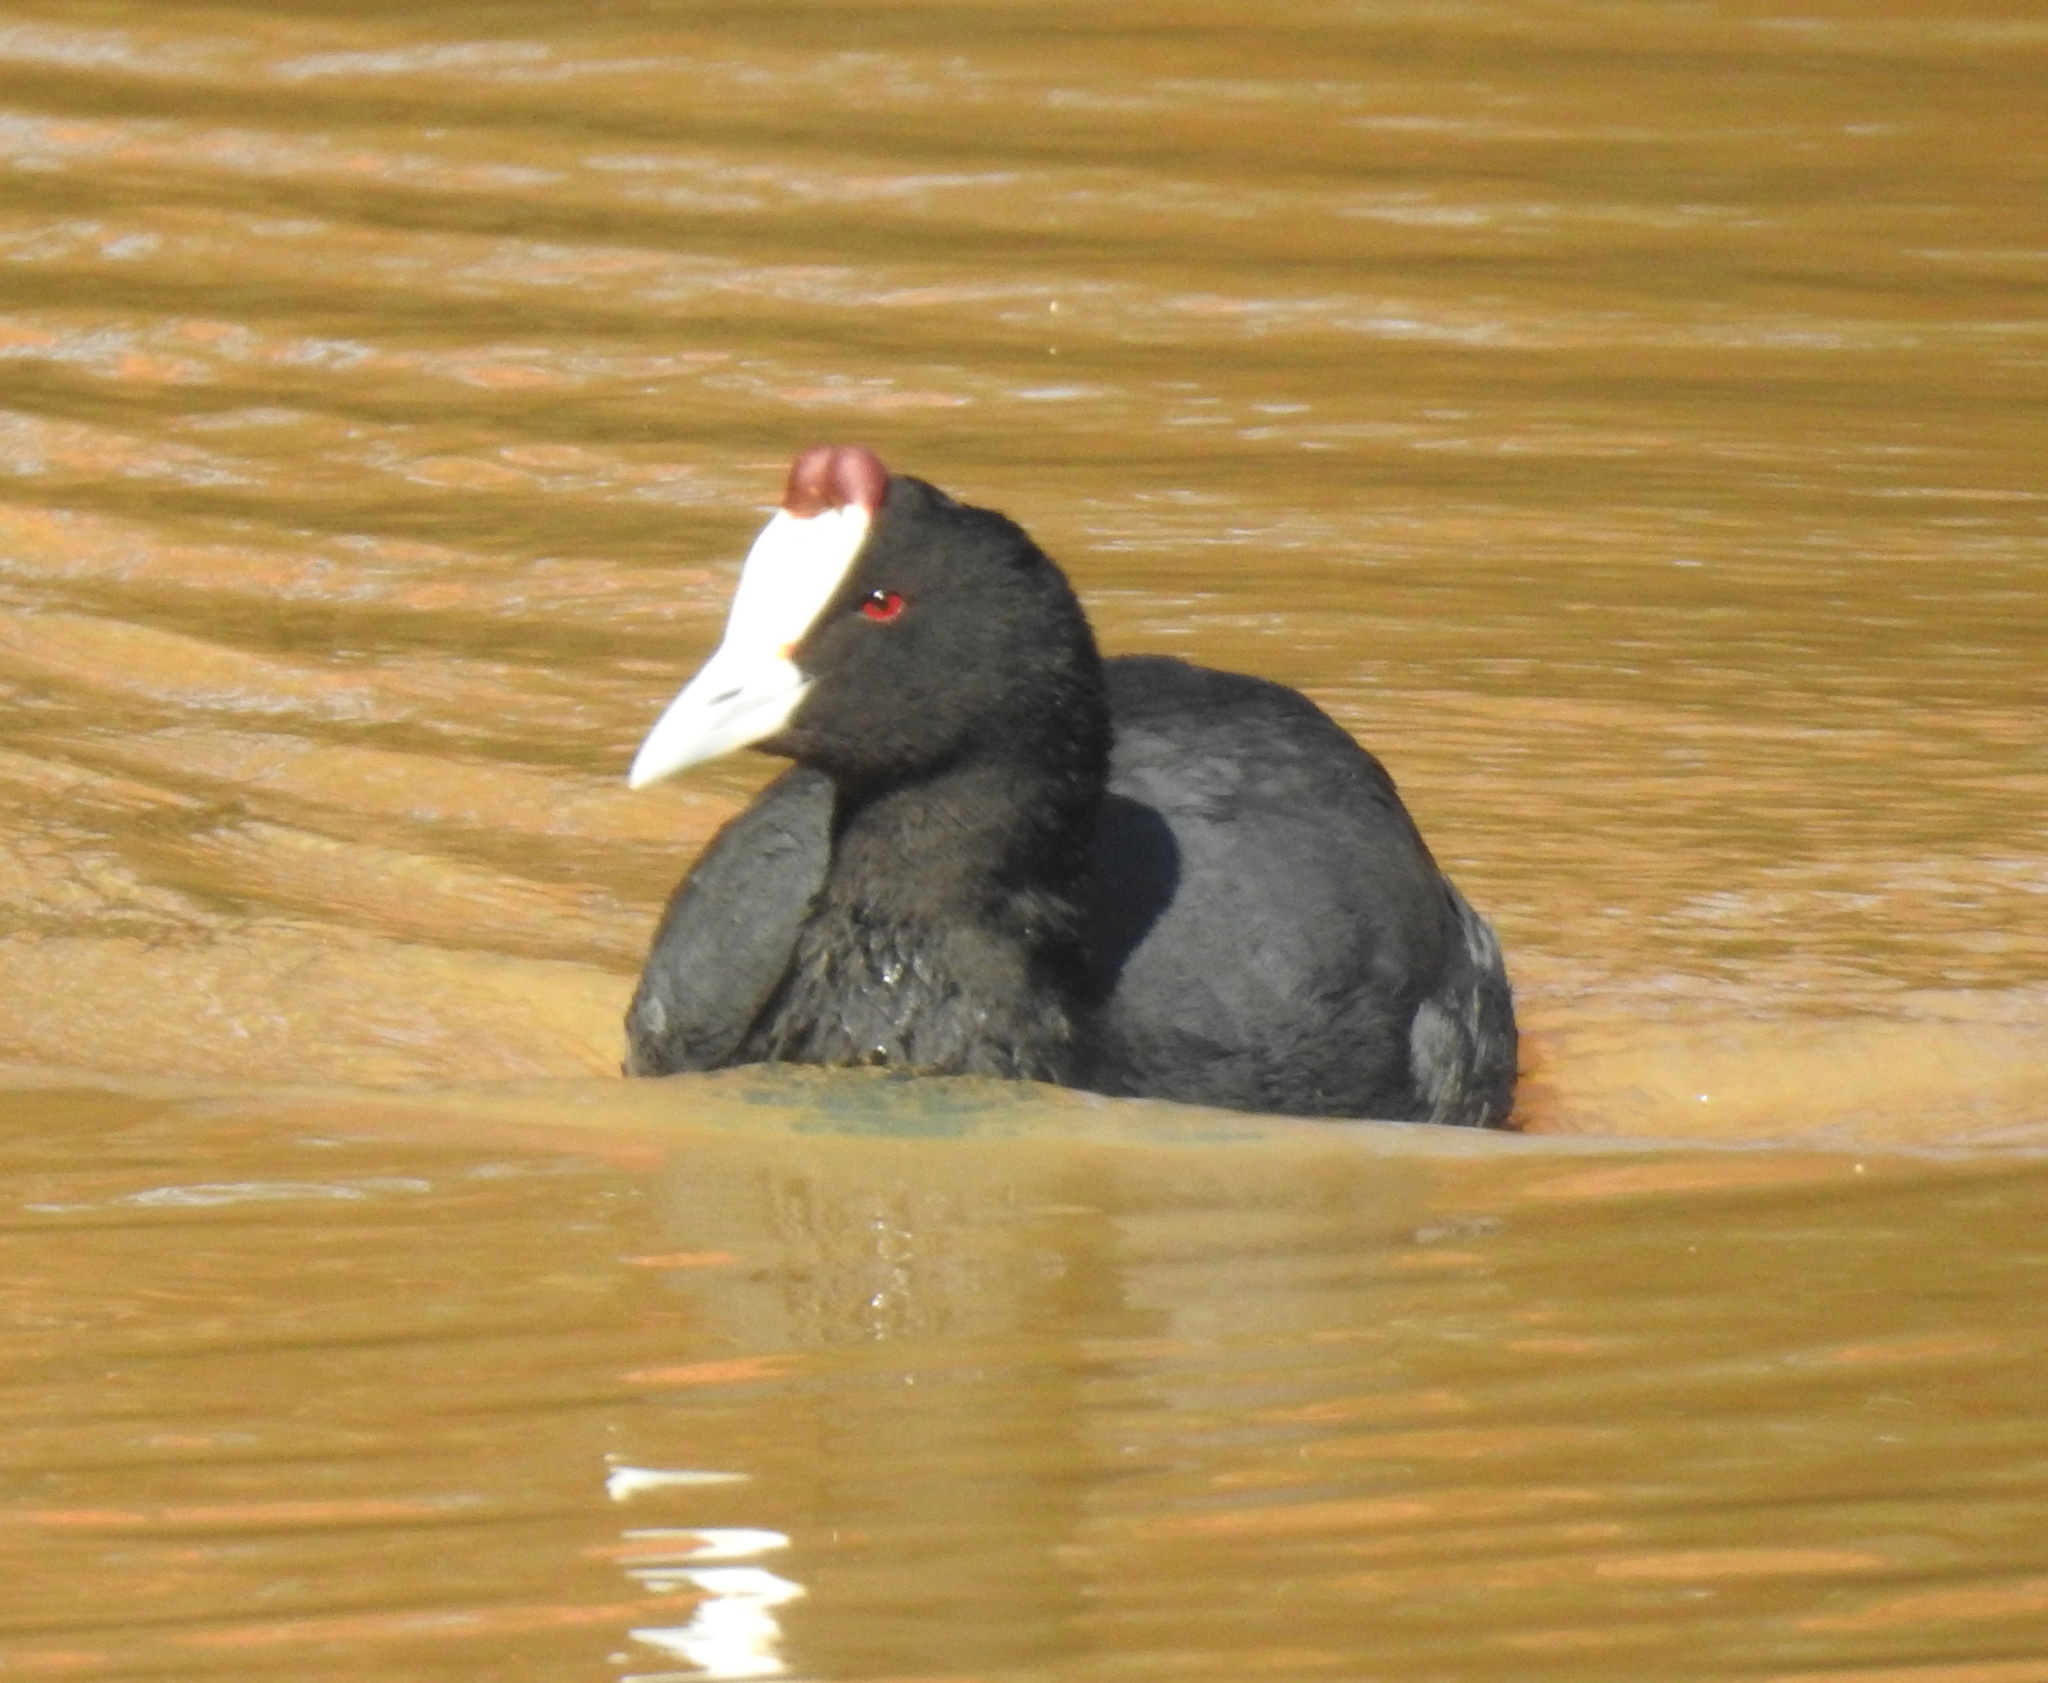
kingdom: Animalia
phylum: Chordata
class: Aves
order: Gruiformes
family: Rallidae
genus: Fulica
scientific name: Fulica cristata
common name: Red-knobbed coot
